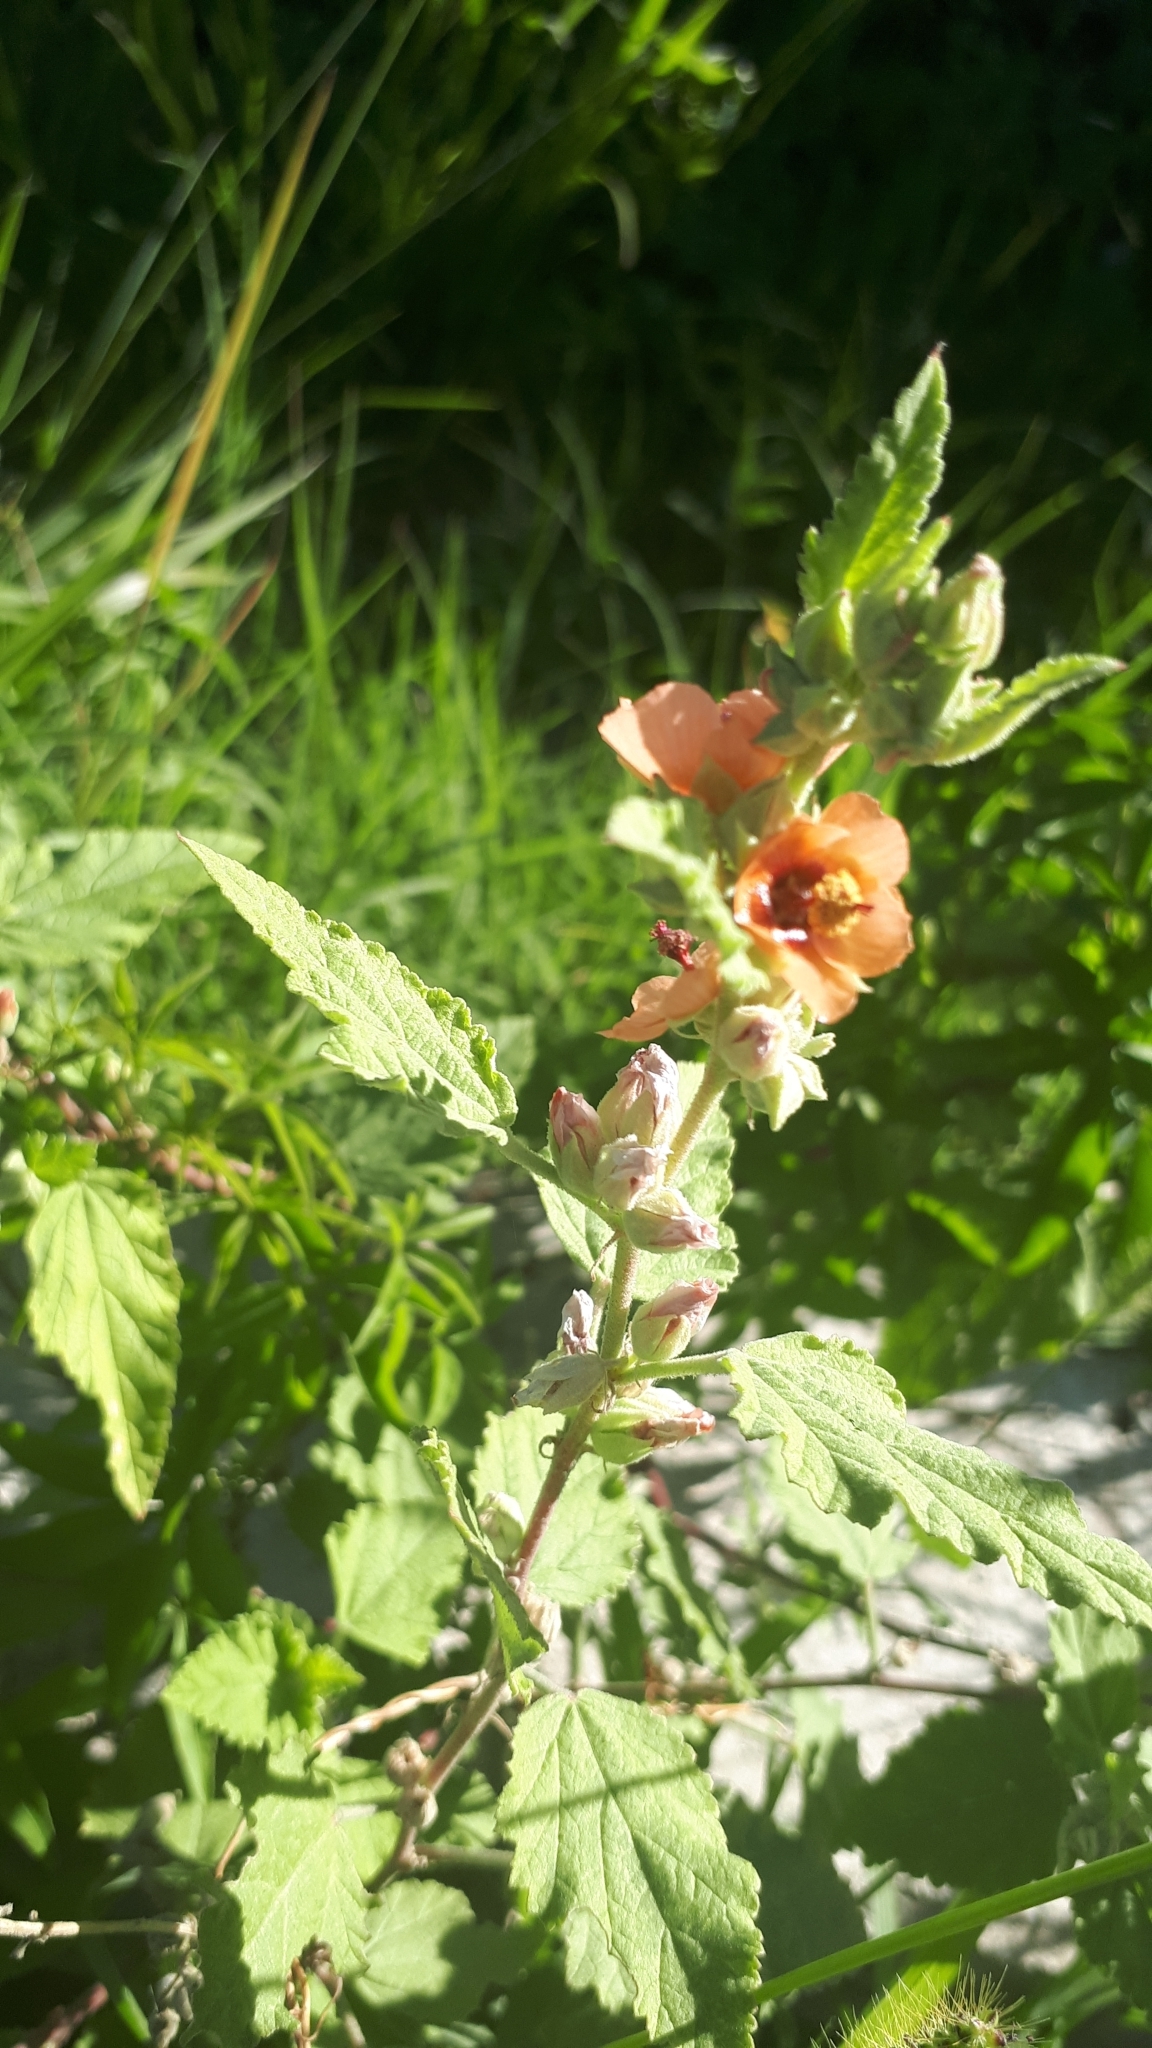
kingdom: Plantae
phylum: Tracheophyta
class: Magnoliopsida
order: Malvales
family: Malvaceae
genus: Sphaeralcea
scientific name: Sphaeralcea bonariensis
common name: Latin globemallow
